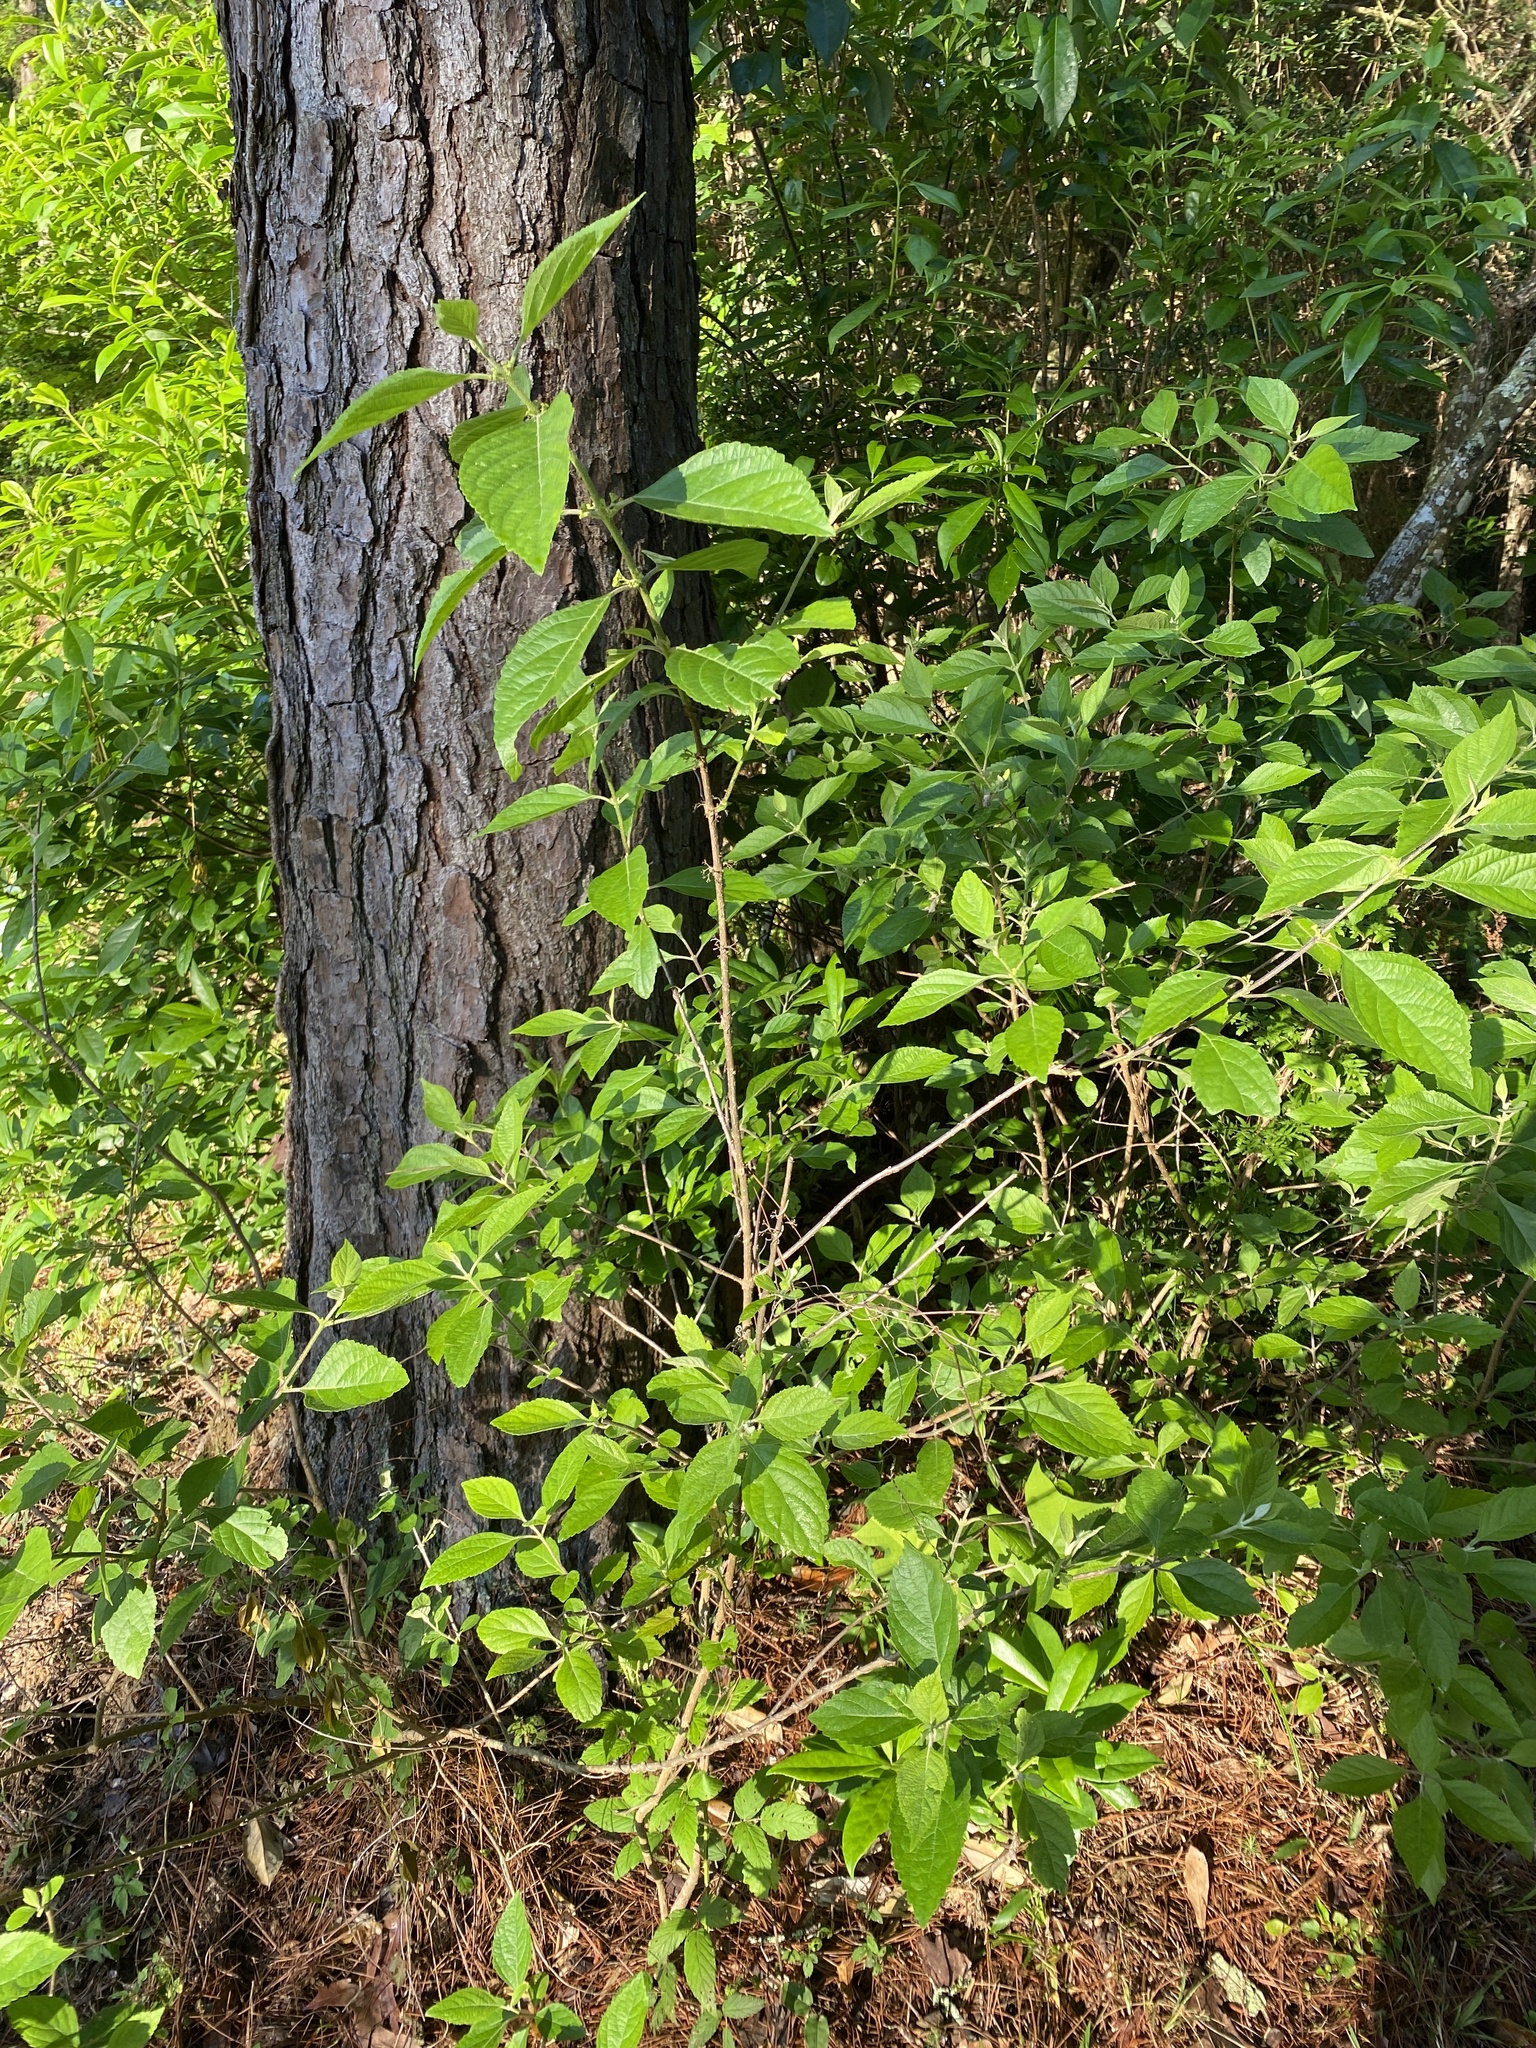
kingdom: Plantae
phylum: Tracheophyta
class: Magnoliopsida
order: Lamiales
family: Lamiaceae
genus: Callicarpa
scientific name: Callicarpa americana
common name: American beautyberry
